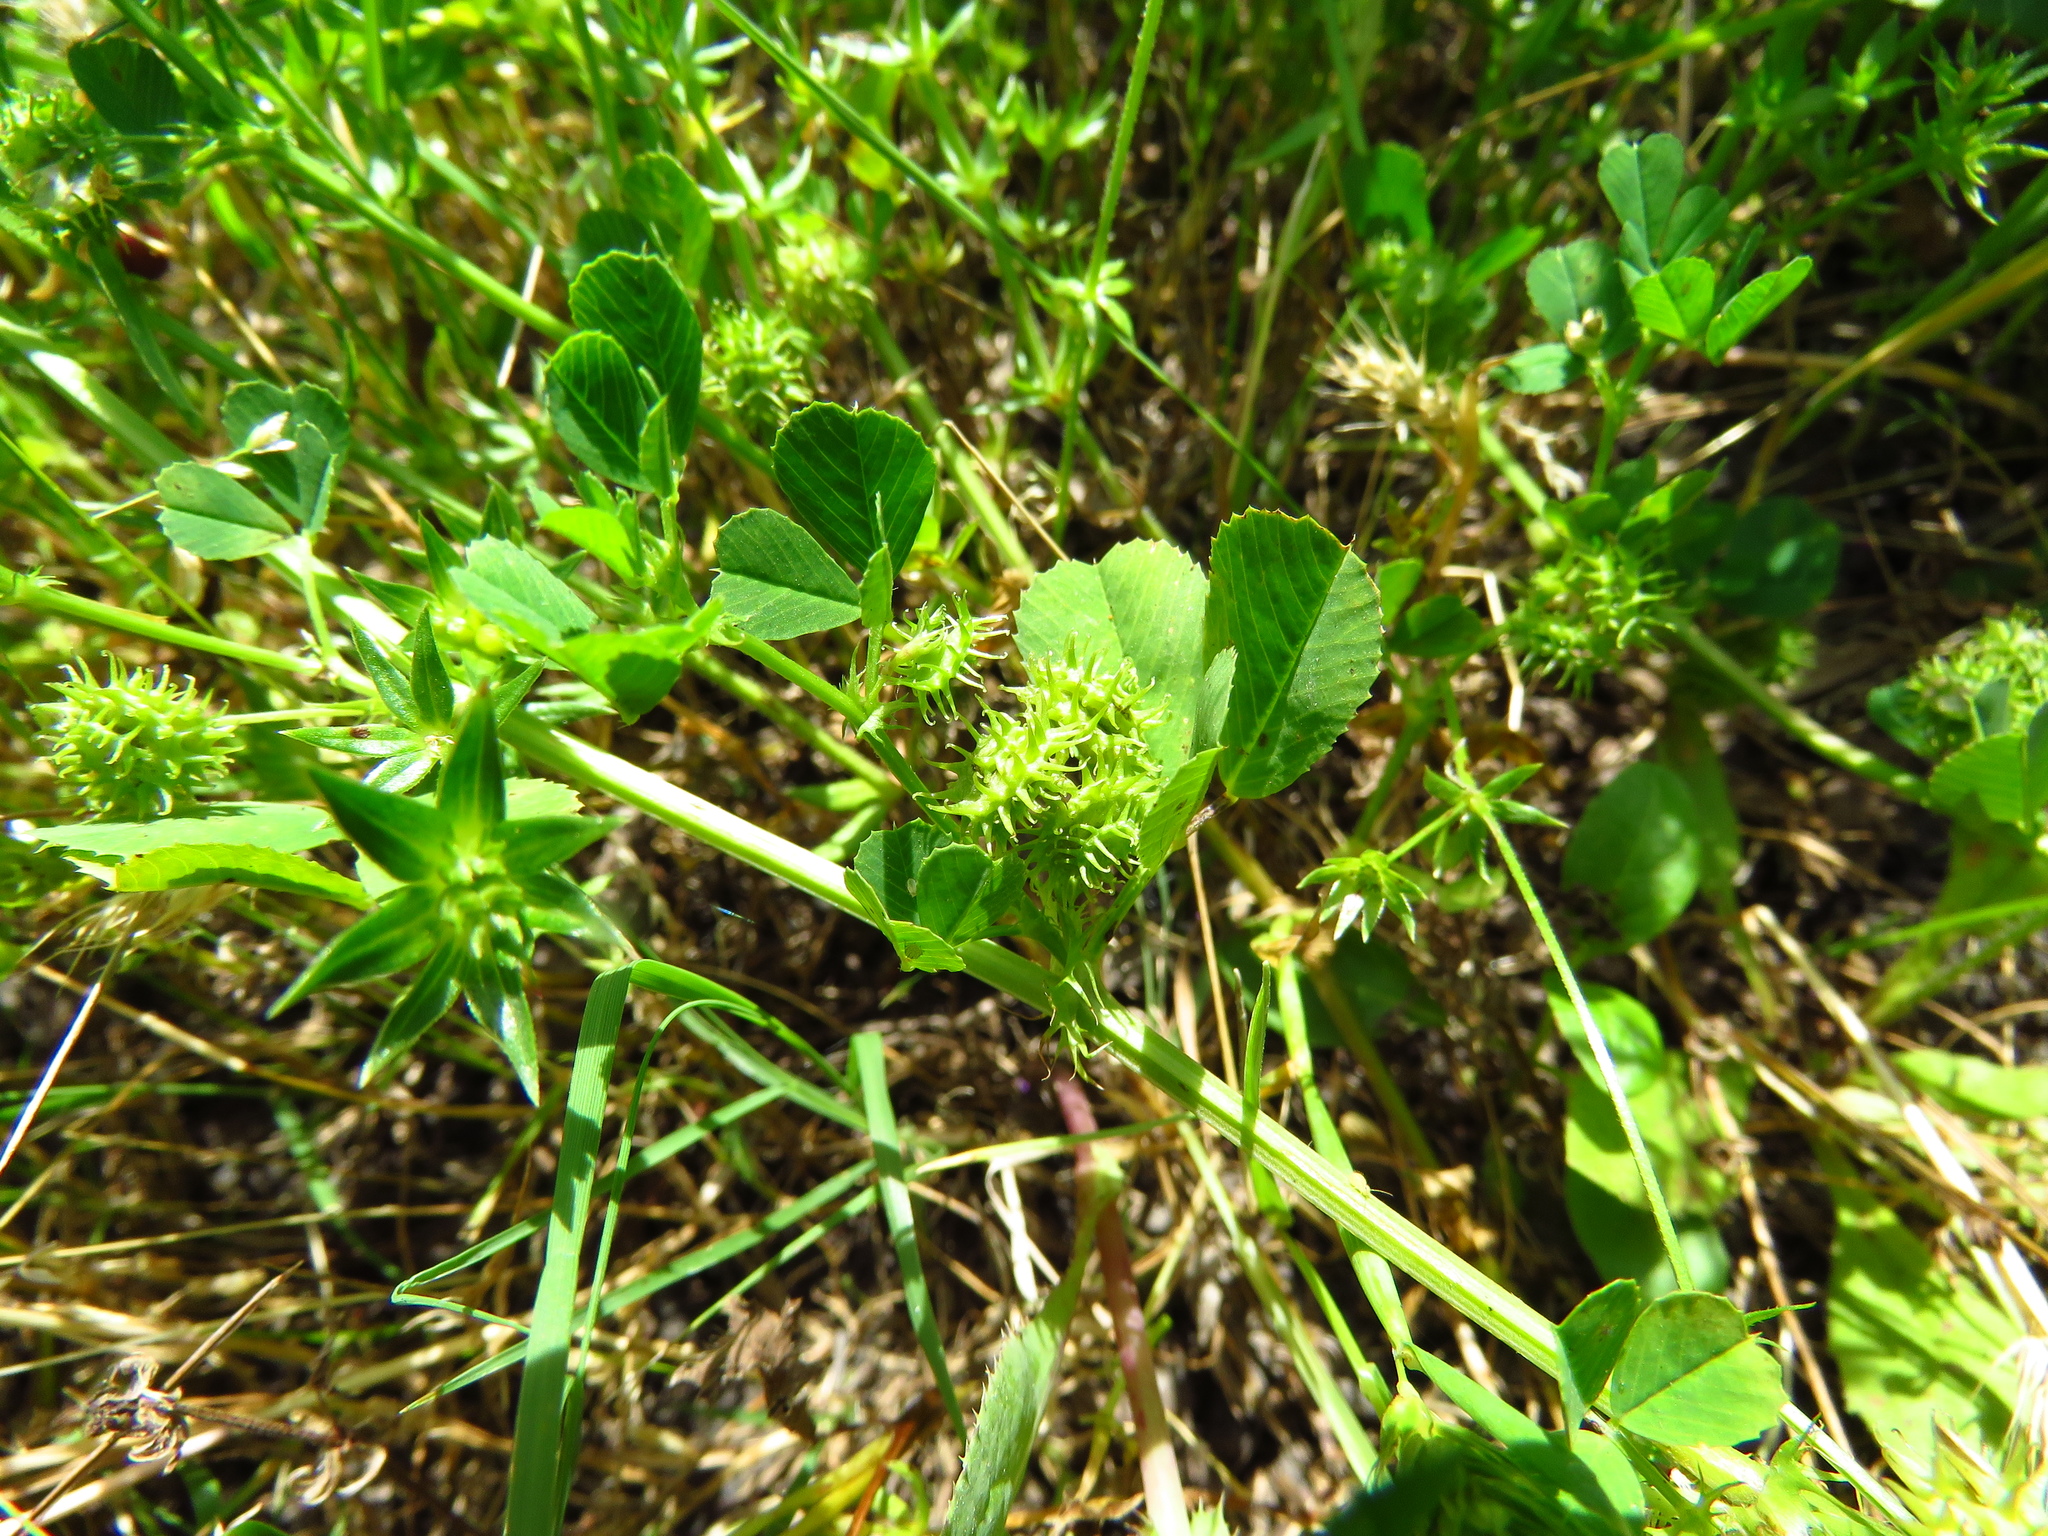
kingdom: Plantae
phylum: Tracheophyta
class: Magnoliopsida
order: Fabales
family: Fabaceae
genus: Medicago
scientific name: Medicago polymorpha
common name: Burclover
